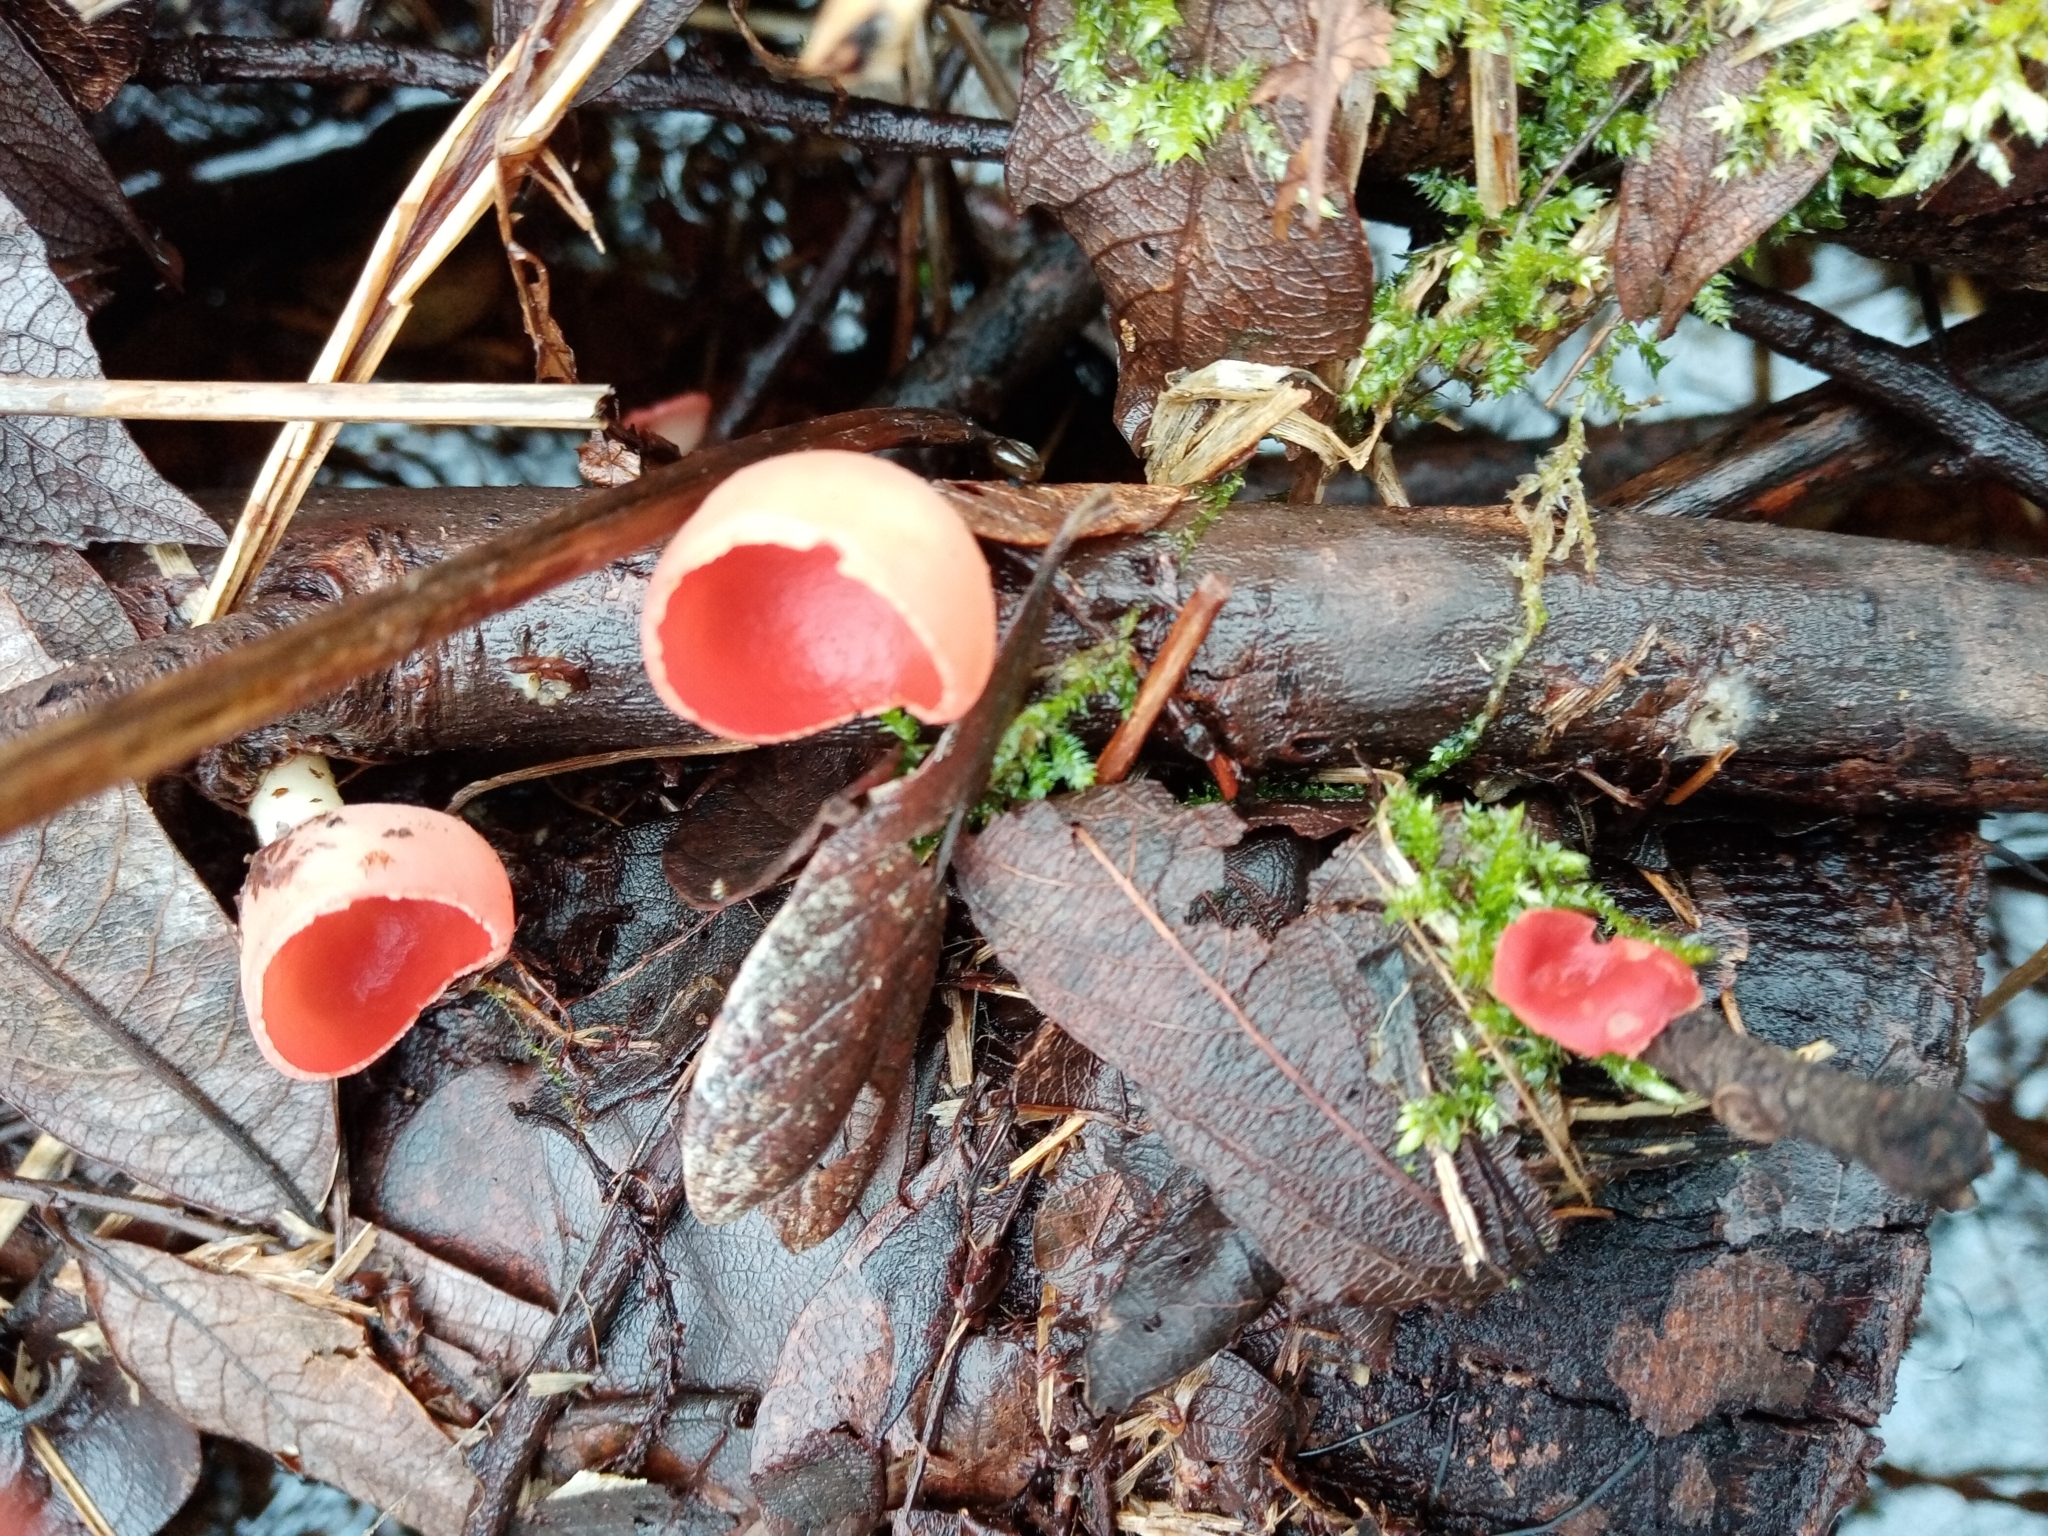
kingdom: Fungi
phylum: Ascomycota
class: Pezizomycetes
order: Pezizales
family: Sarcoscyphaceae
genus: Sarcoscypha
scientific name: Sarcoscypha
